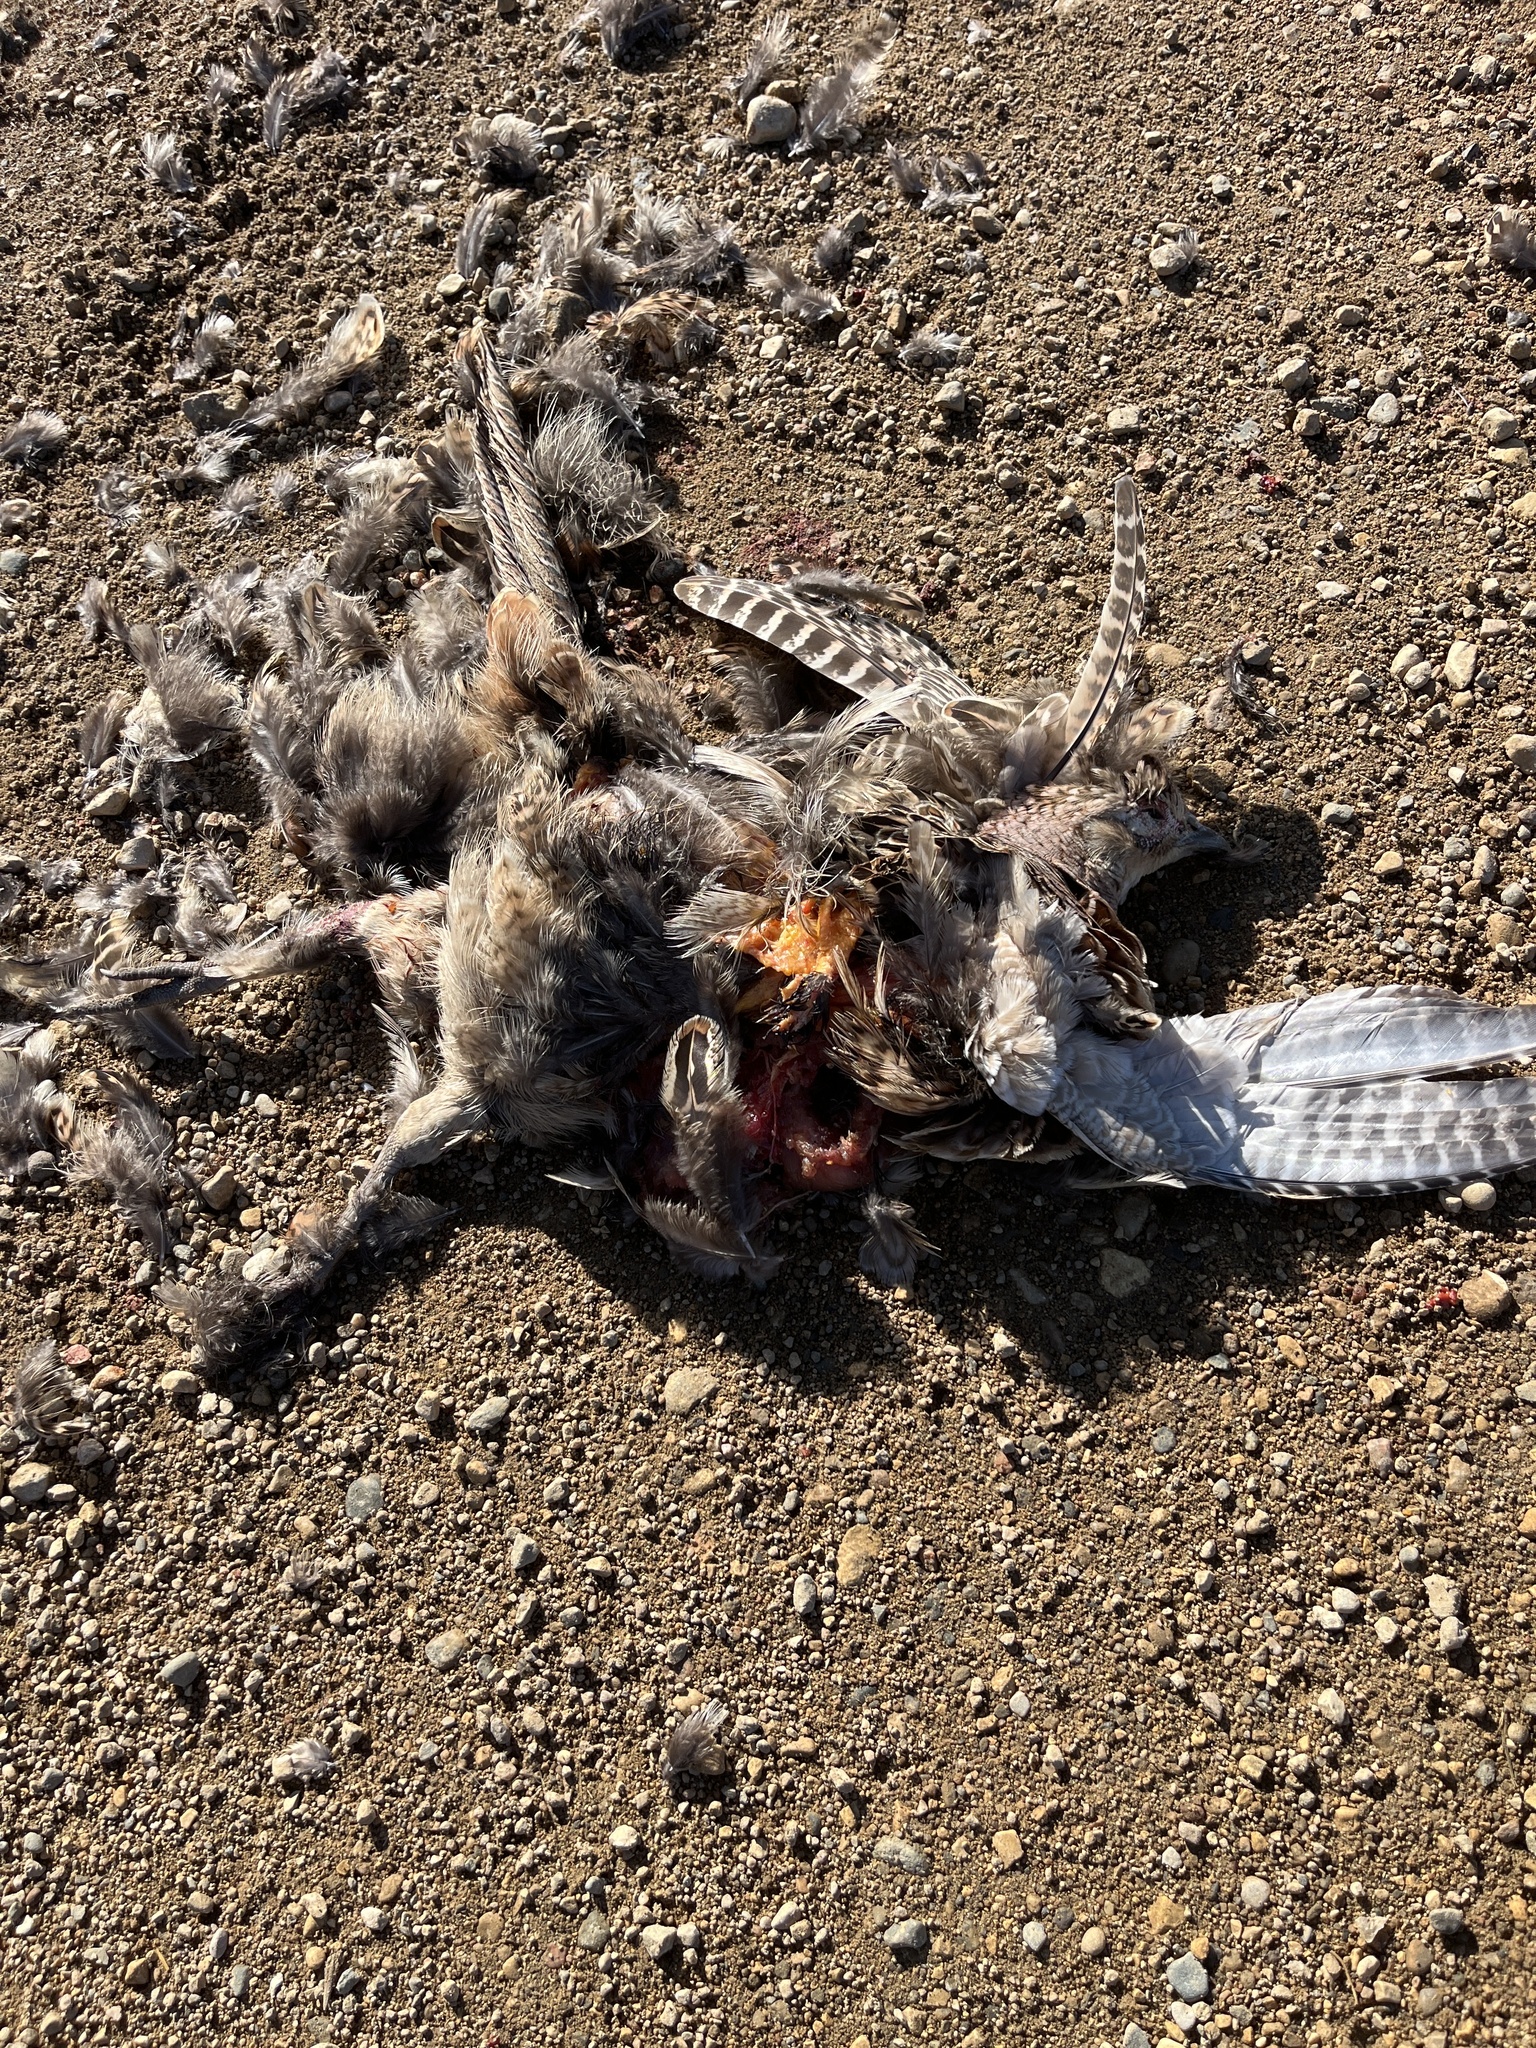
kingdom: Animalia
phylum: Chordata
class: Aves
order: Galliformes
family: Phasianidae
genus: Phasianus
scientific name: Phasianus colchicus
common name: Common pheasant
